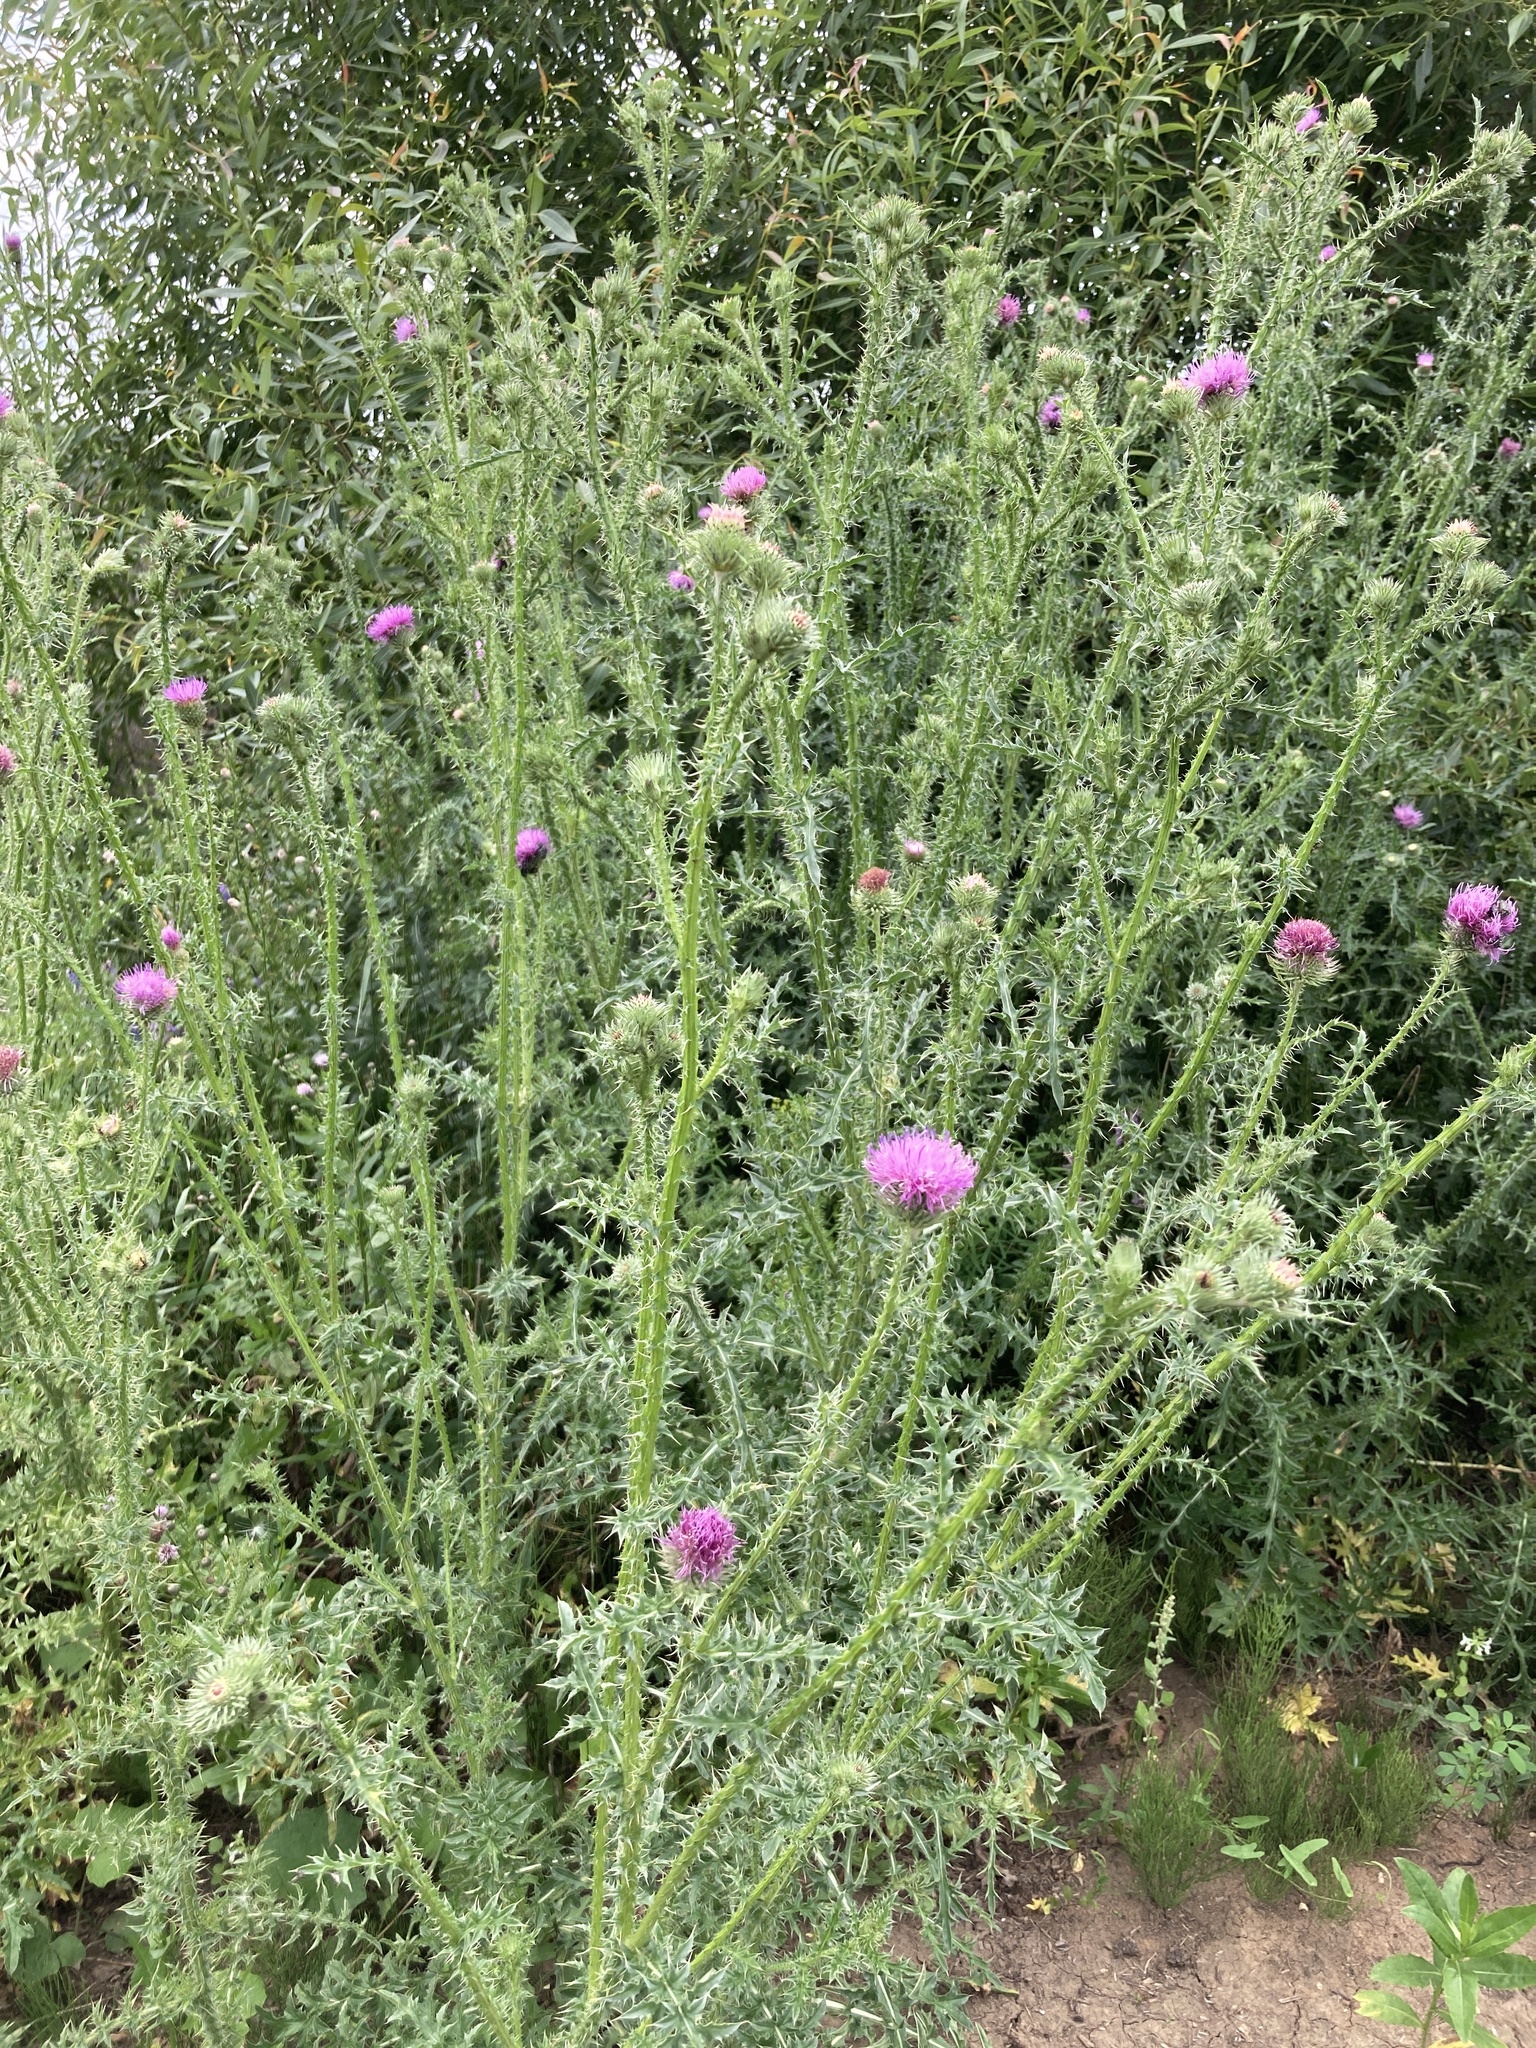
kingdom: Plantae
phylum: Tracheophyta
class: Magnoliopsida
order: Asterales
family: Asteraceae
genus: Carduus
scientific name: Carduus acanthoides
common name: Plumeless thistle
